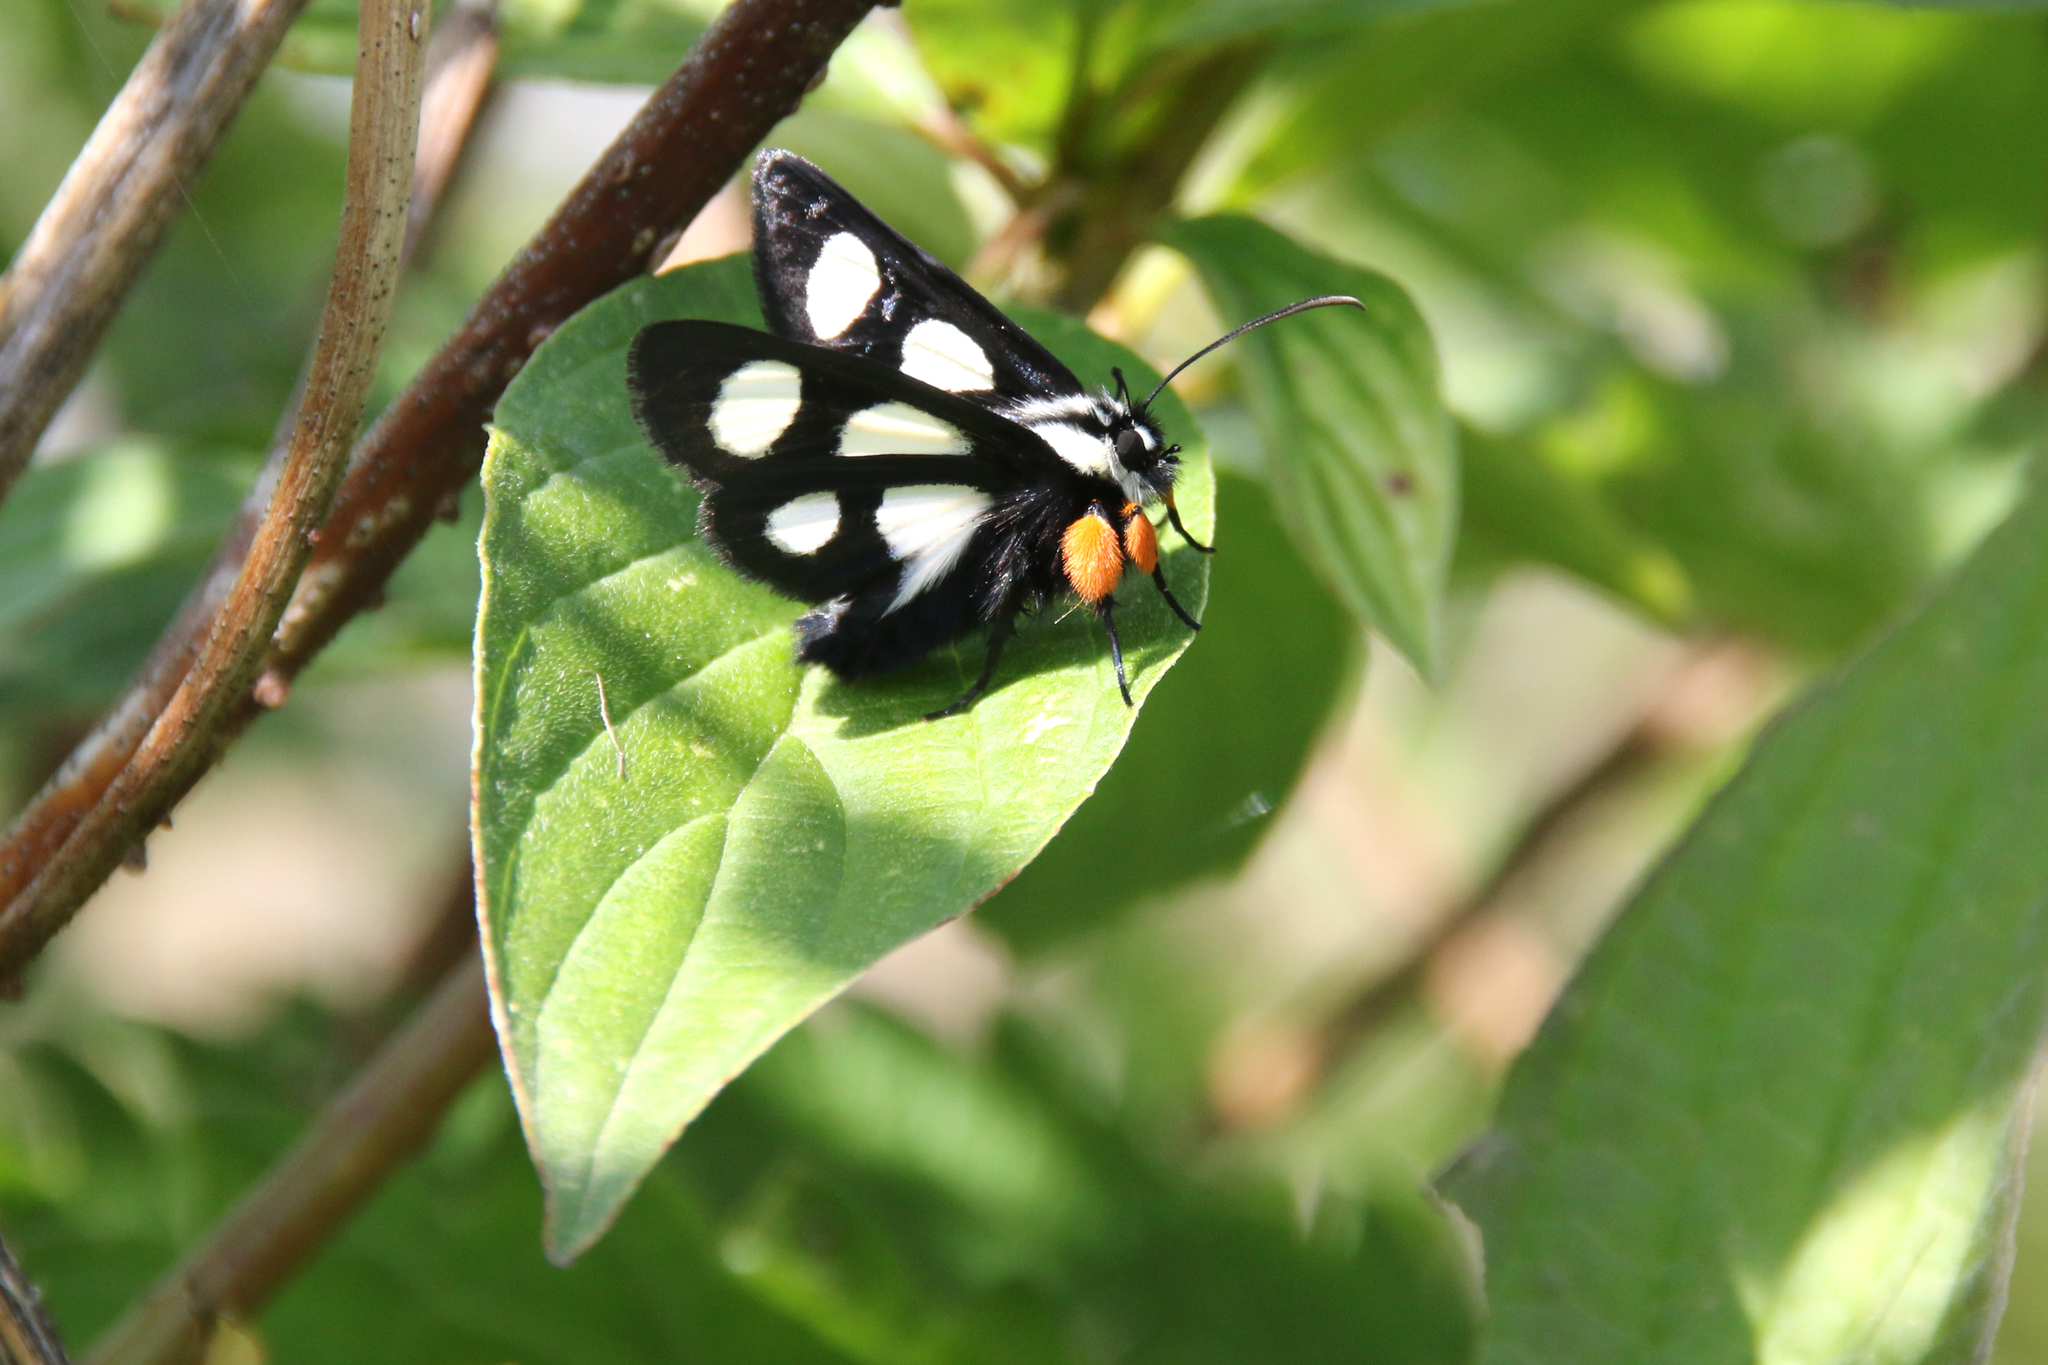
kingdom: Animalia
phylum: Arthropoda
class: Insecta
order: Lepidoptera
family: Noctuidae
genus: Alypia
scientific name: Alypia octomaculata
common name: Eight-spotted forester
